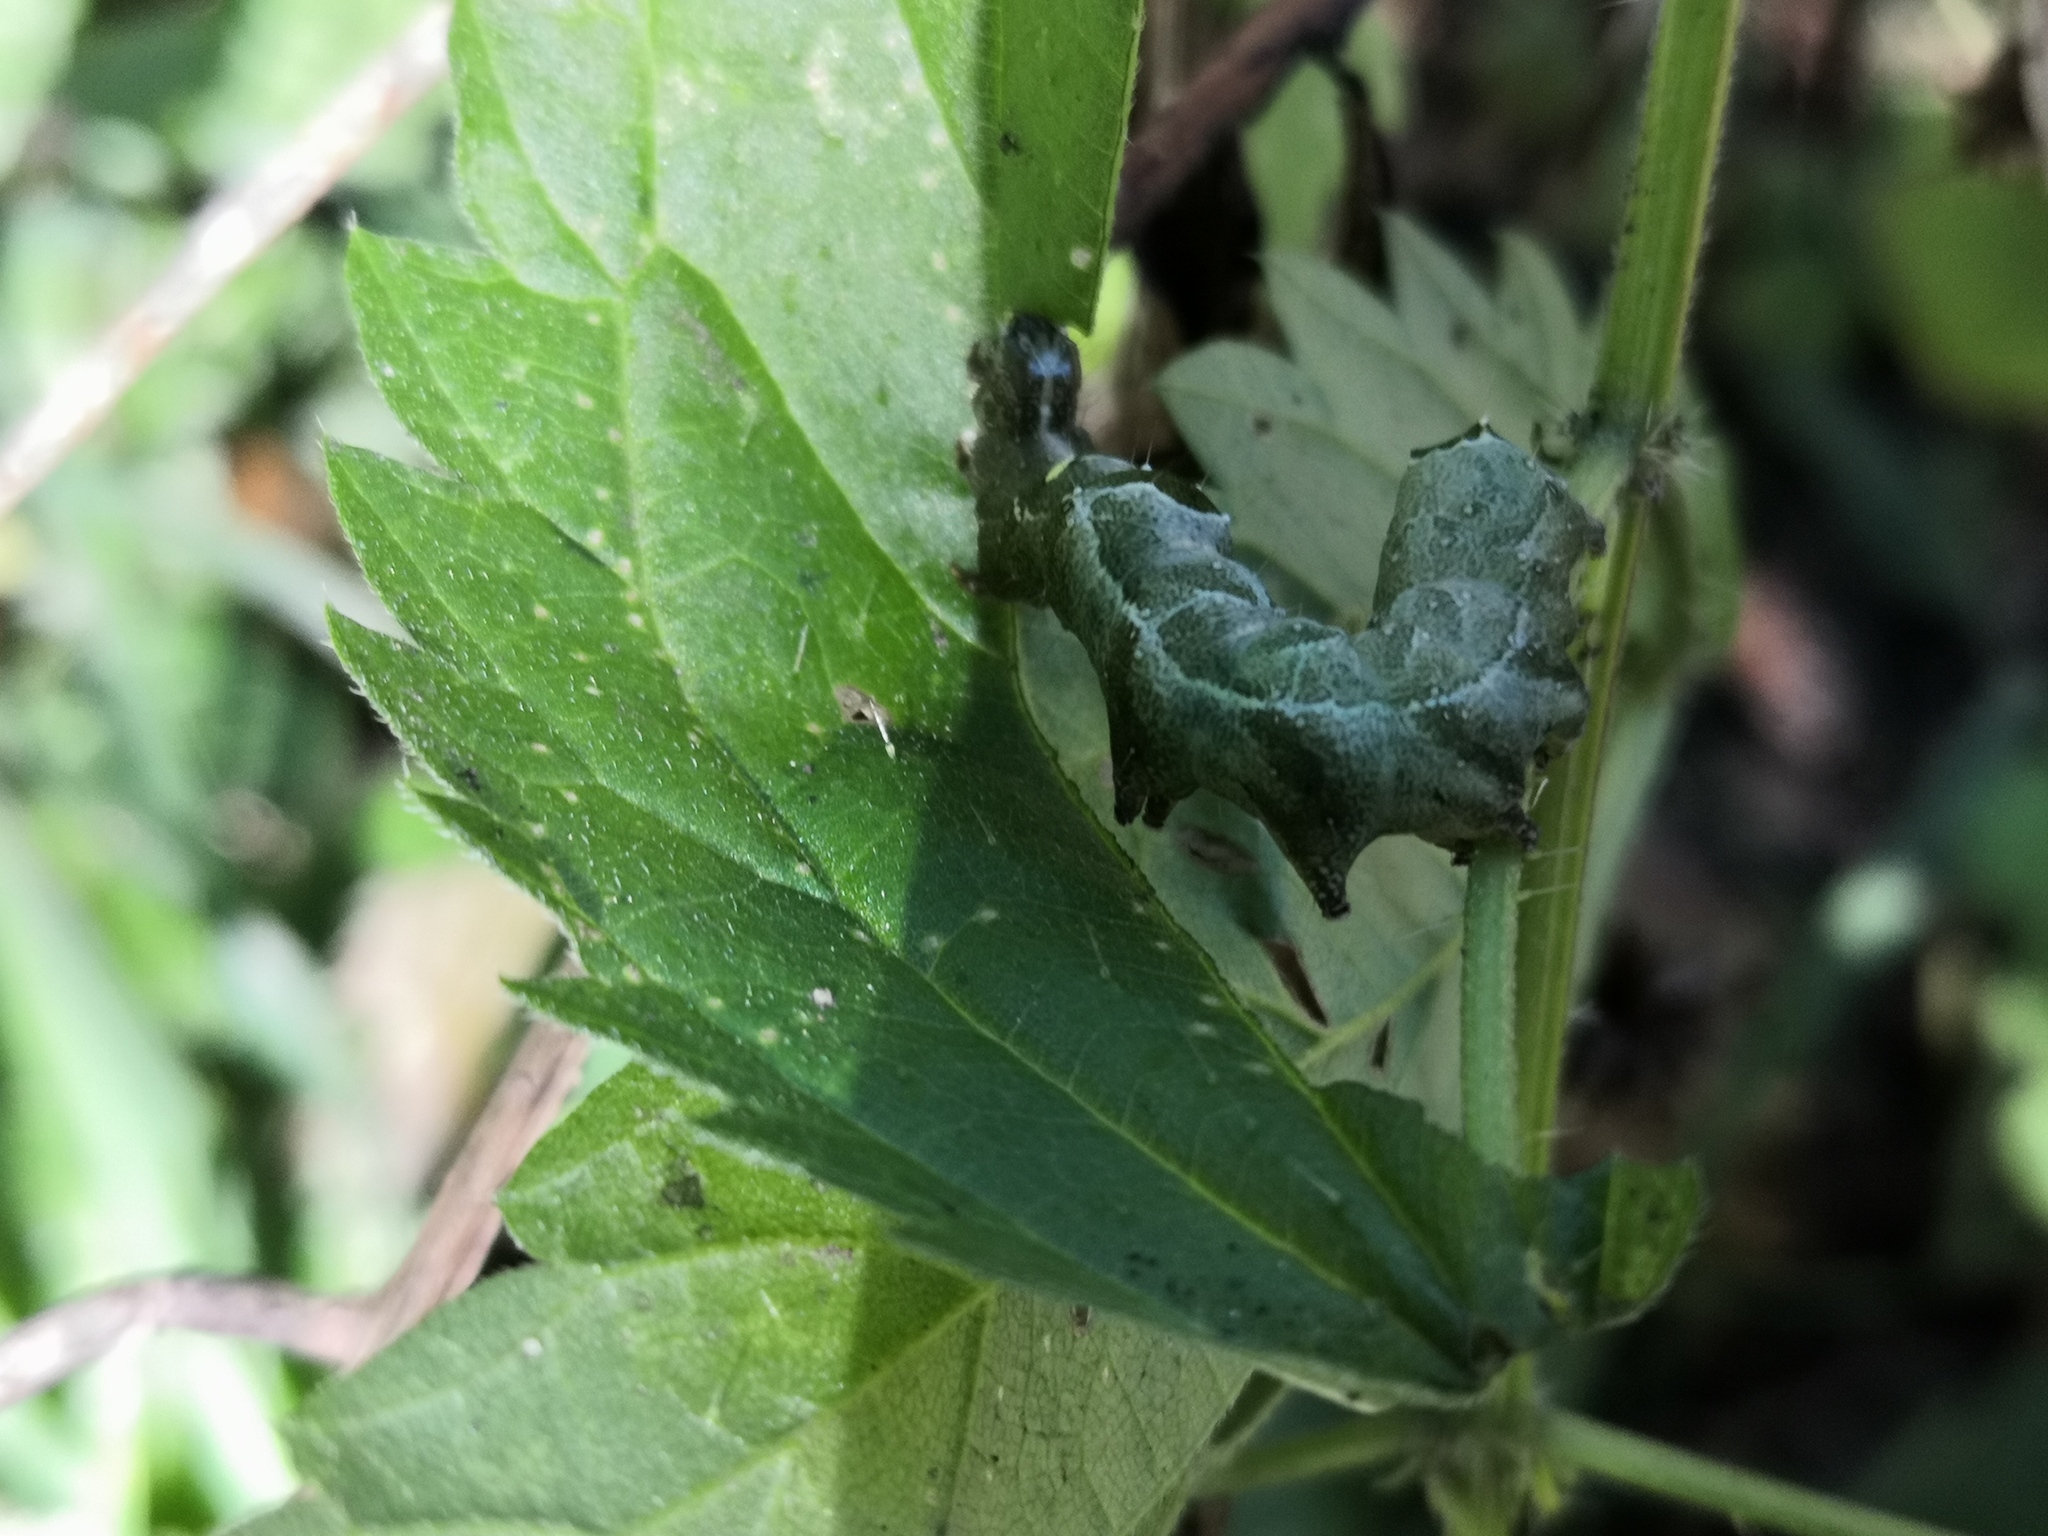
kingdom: Animalia
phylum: Arthropoda
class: Insecta
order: Lepidoptera
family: Noctuidae
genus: Abrostola
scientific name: Abrostola triplasia
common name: Dark spectacle
